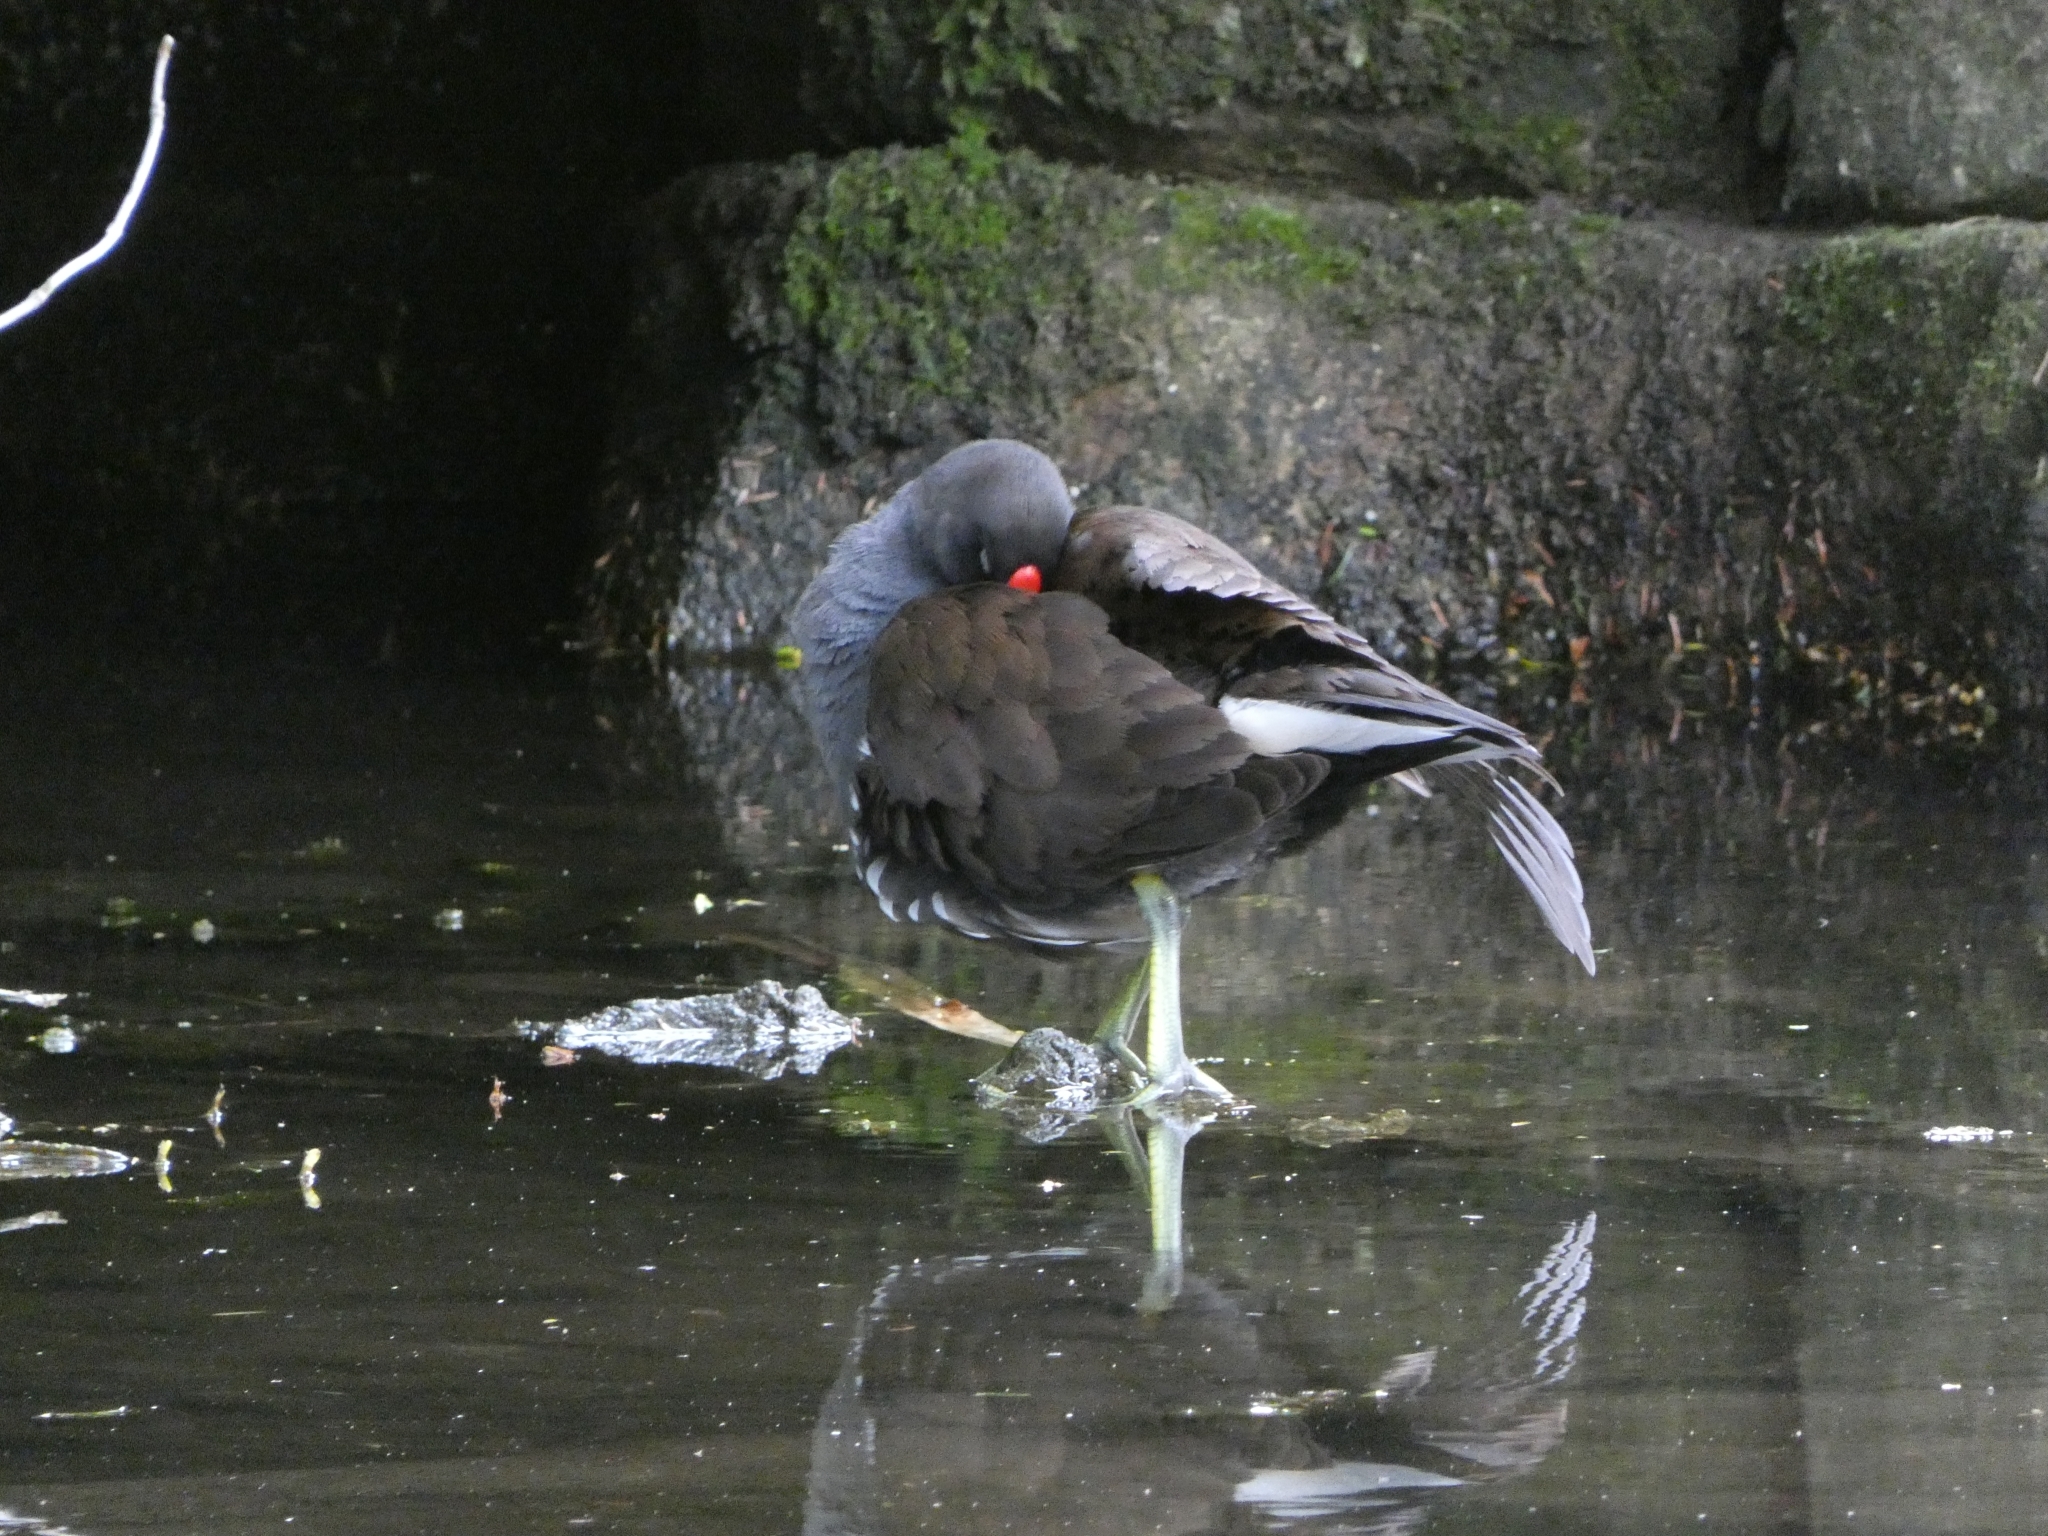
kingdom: Animalia
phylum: Chordata
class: Aves
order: Gruiformes
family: Rallidae
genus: Gallinula
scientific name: Gallinula chloropus
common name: Common moorhen
